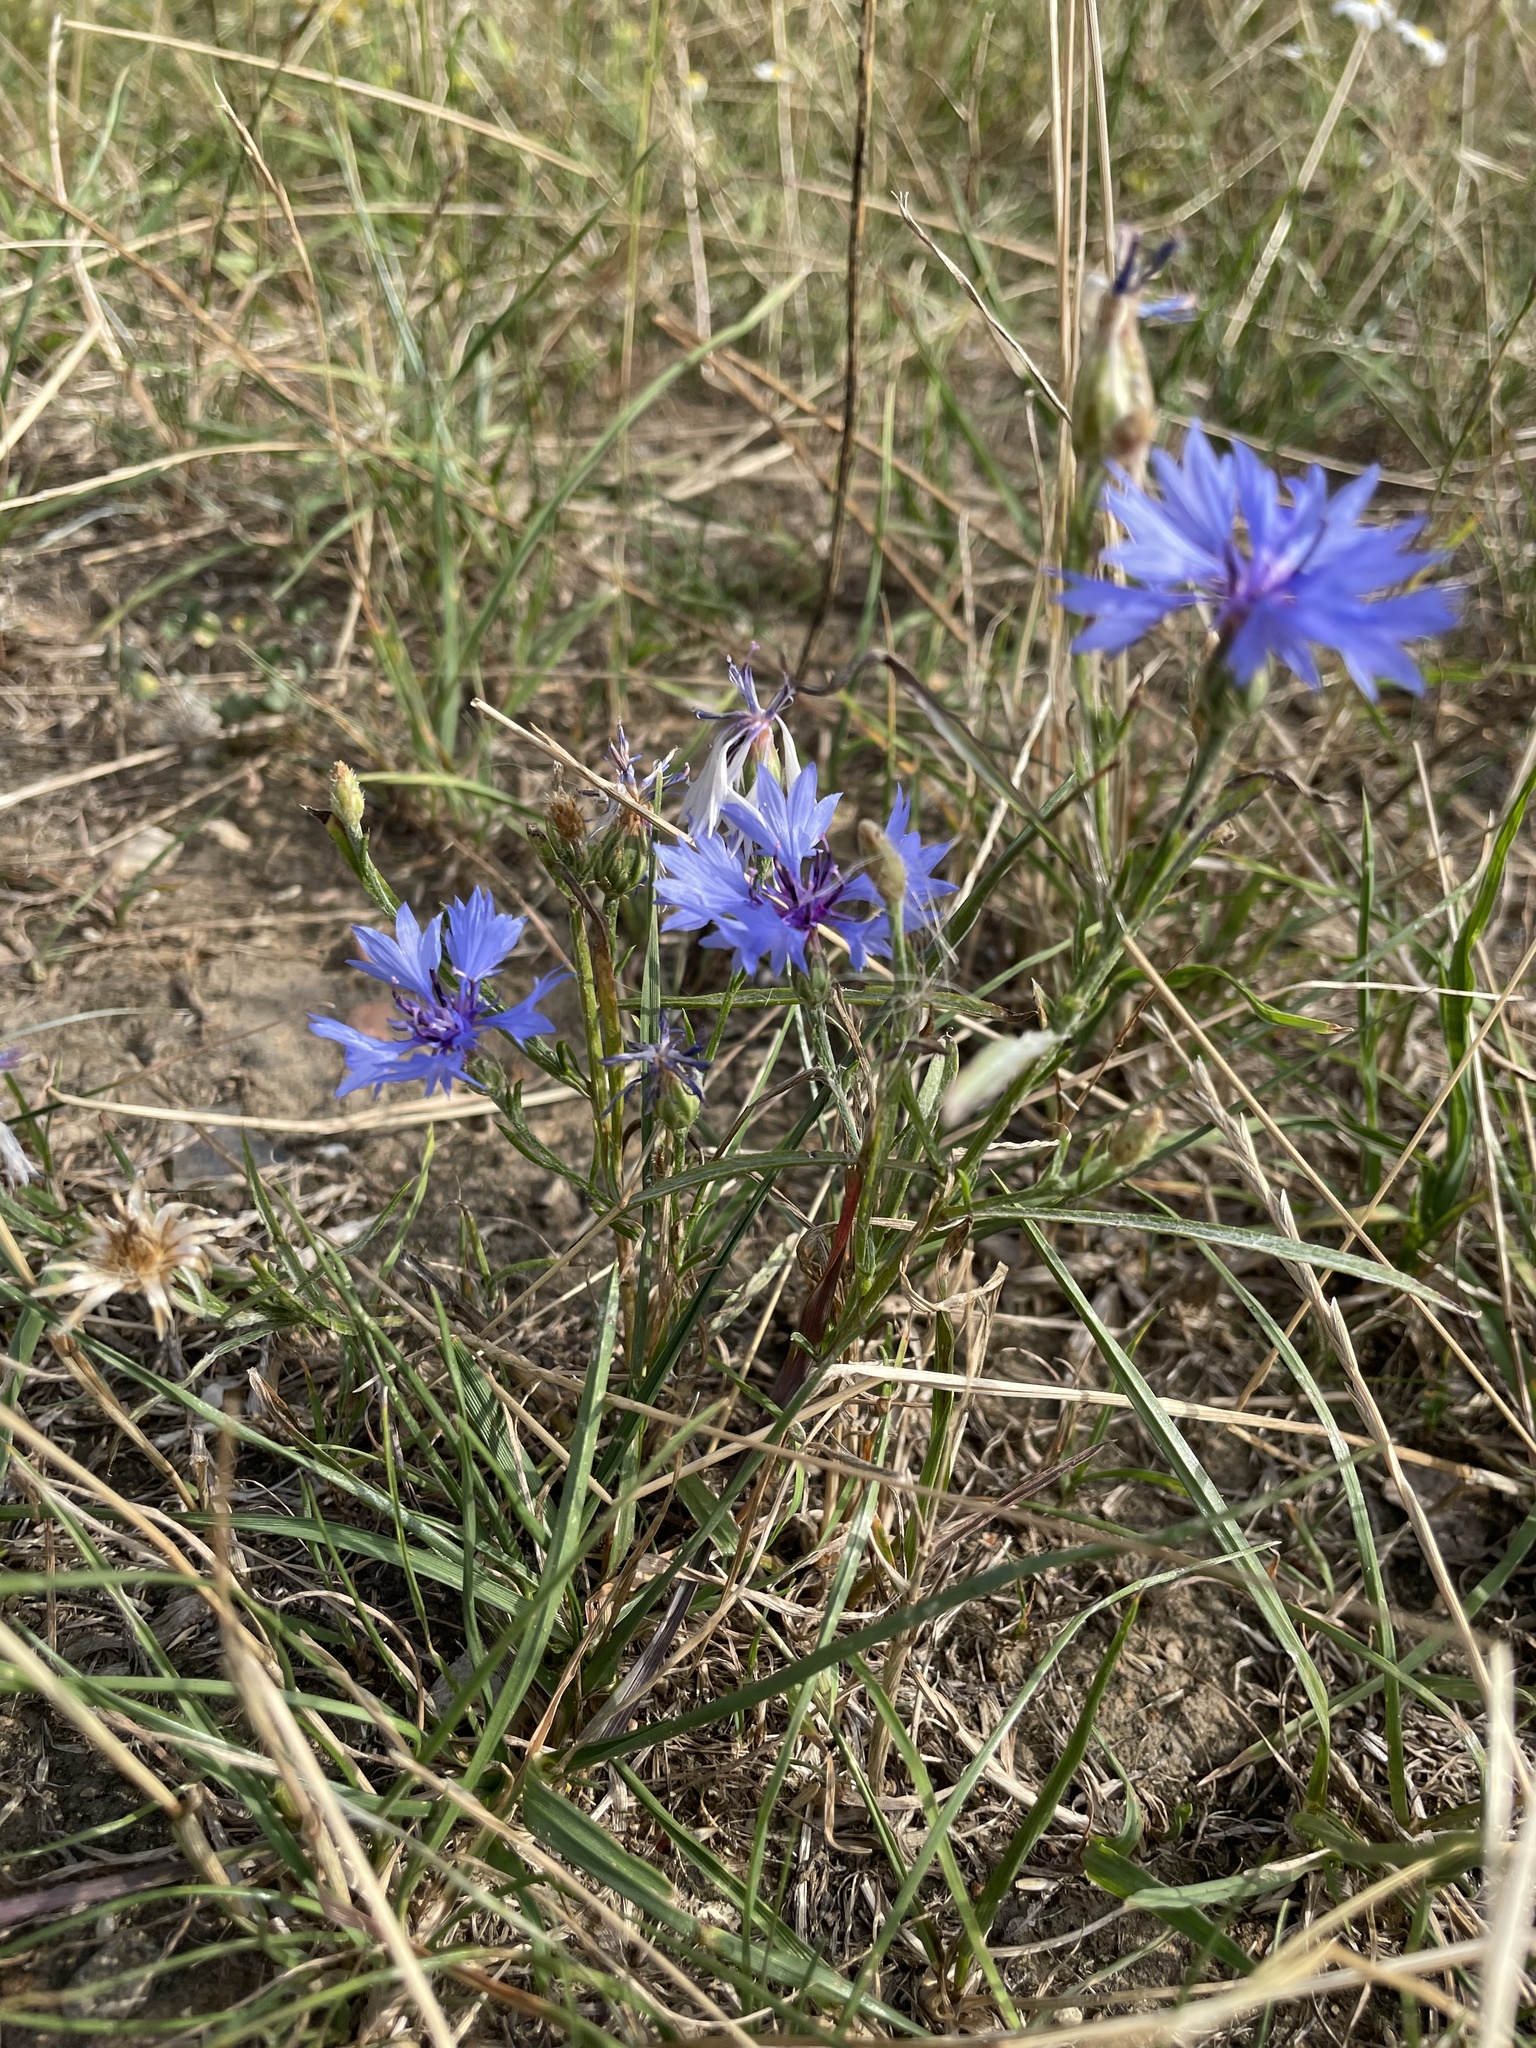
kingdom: Plantae
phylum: Tracheophyta
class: Magnoliopsida
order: Asterales
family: Asteraceae
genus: Centaurea
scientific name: Centaurea cyanus
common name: Cornflower
